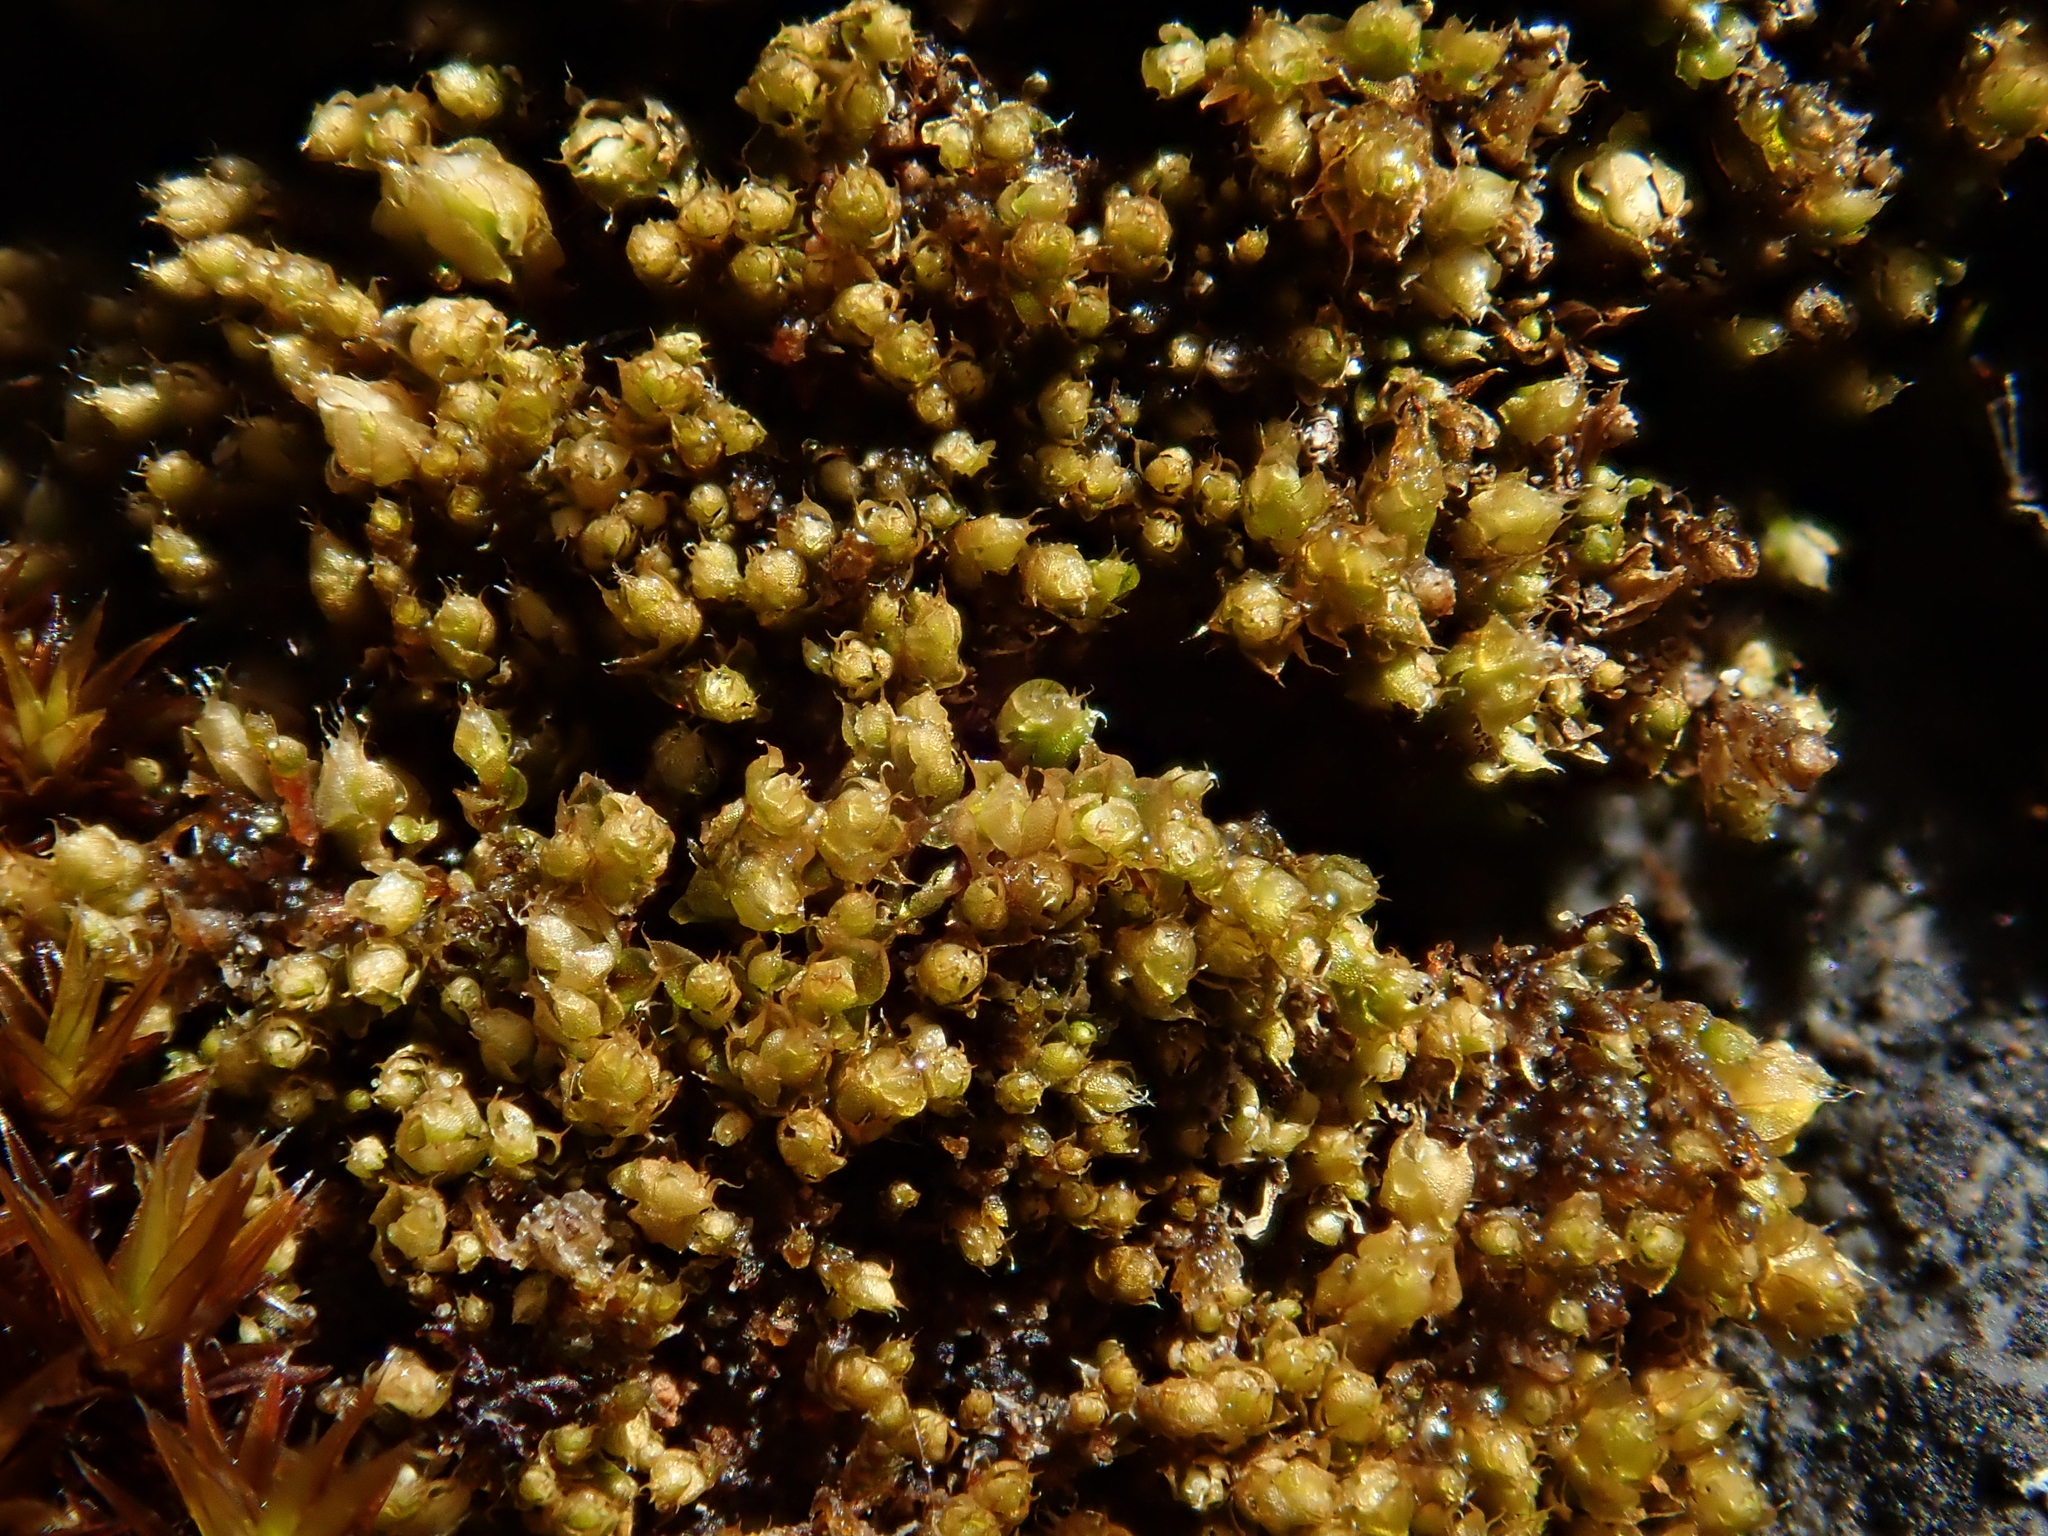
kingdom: Plantae
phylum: Bryophyta
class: Bryopsida
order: Bryales
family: Bryaceae
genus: Rosulabryum
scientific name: Rosulabryum elegans
